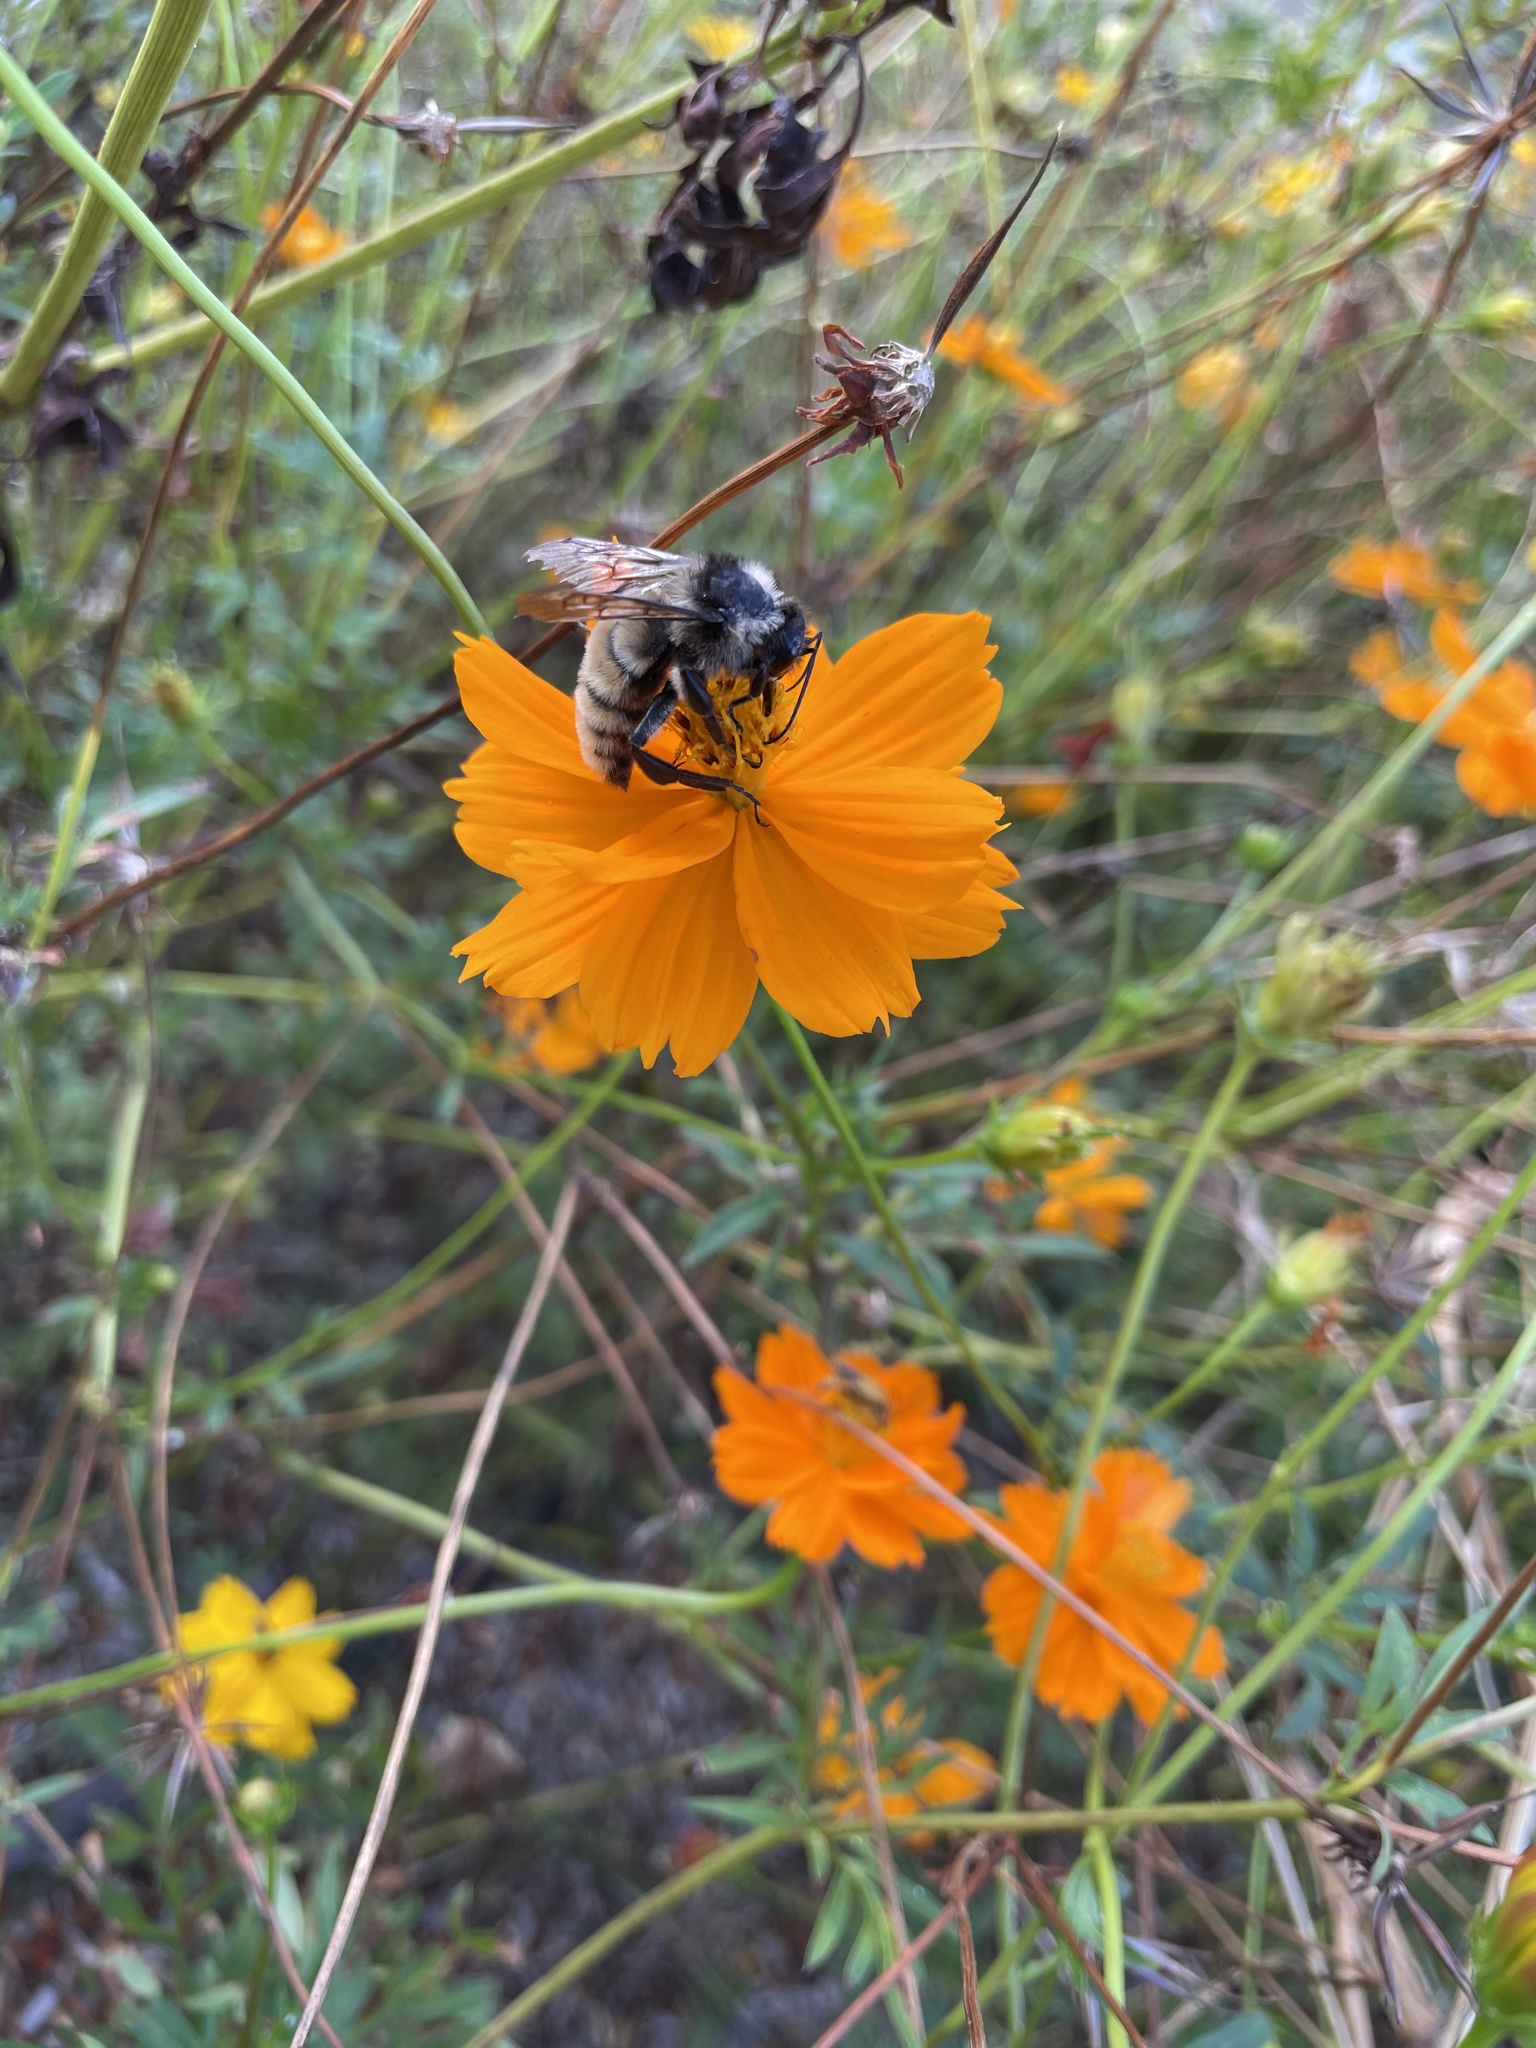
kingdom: Animalia
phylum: Arthropoda
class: Insecta
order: Hymenoptera
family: Apidae
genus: Bombus
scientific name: Bombus pensylvanicus
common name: Bumble bee
